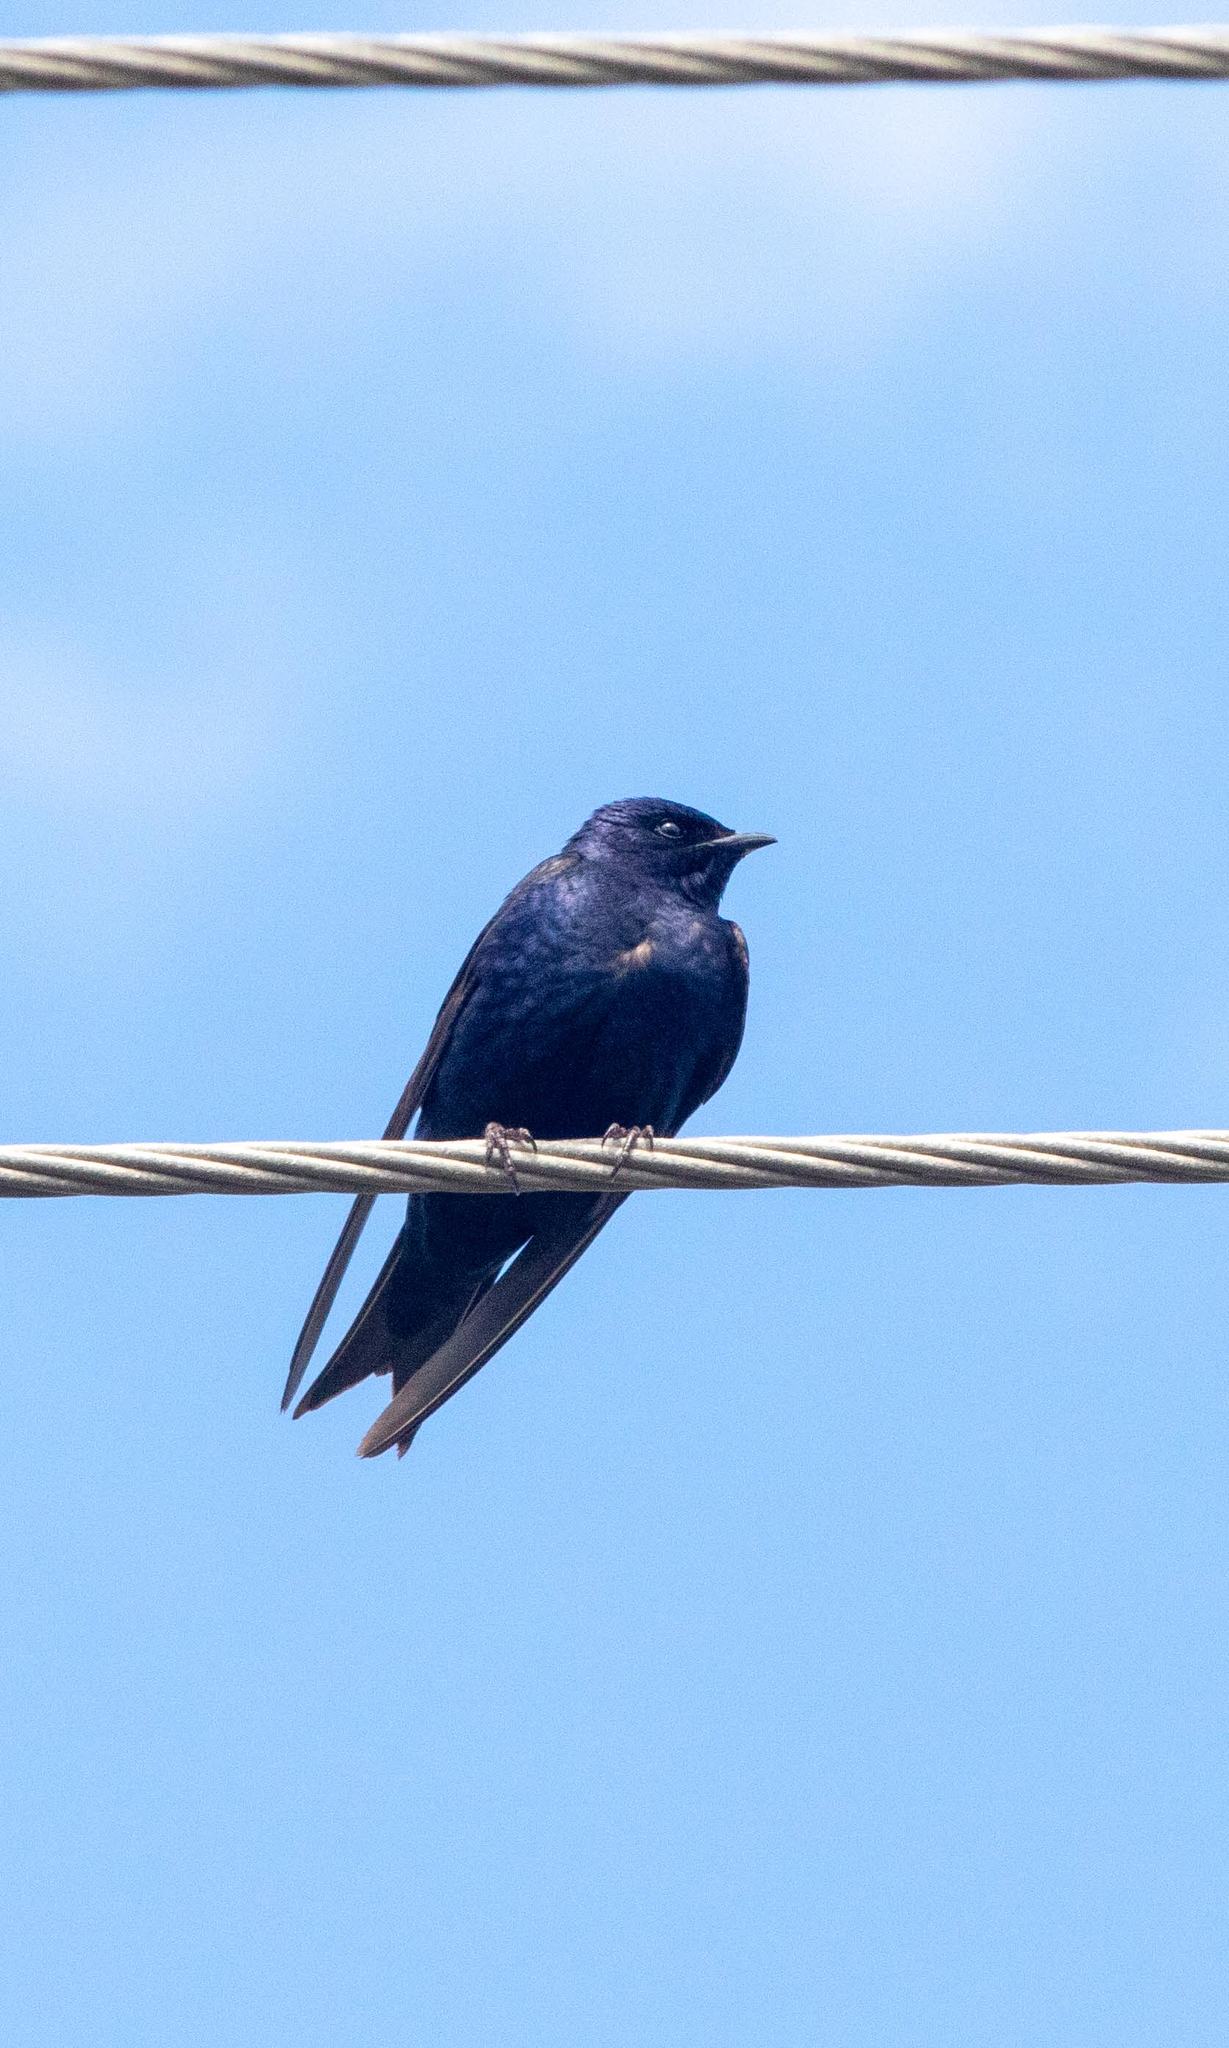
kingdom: Animalia
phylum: Chordata
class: Aves
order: Passeriformes
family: Hirundinidae
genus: Progne
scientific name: Progne subis
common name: Purple martin
